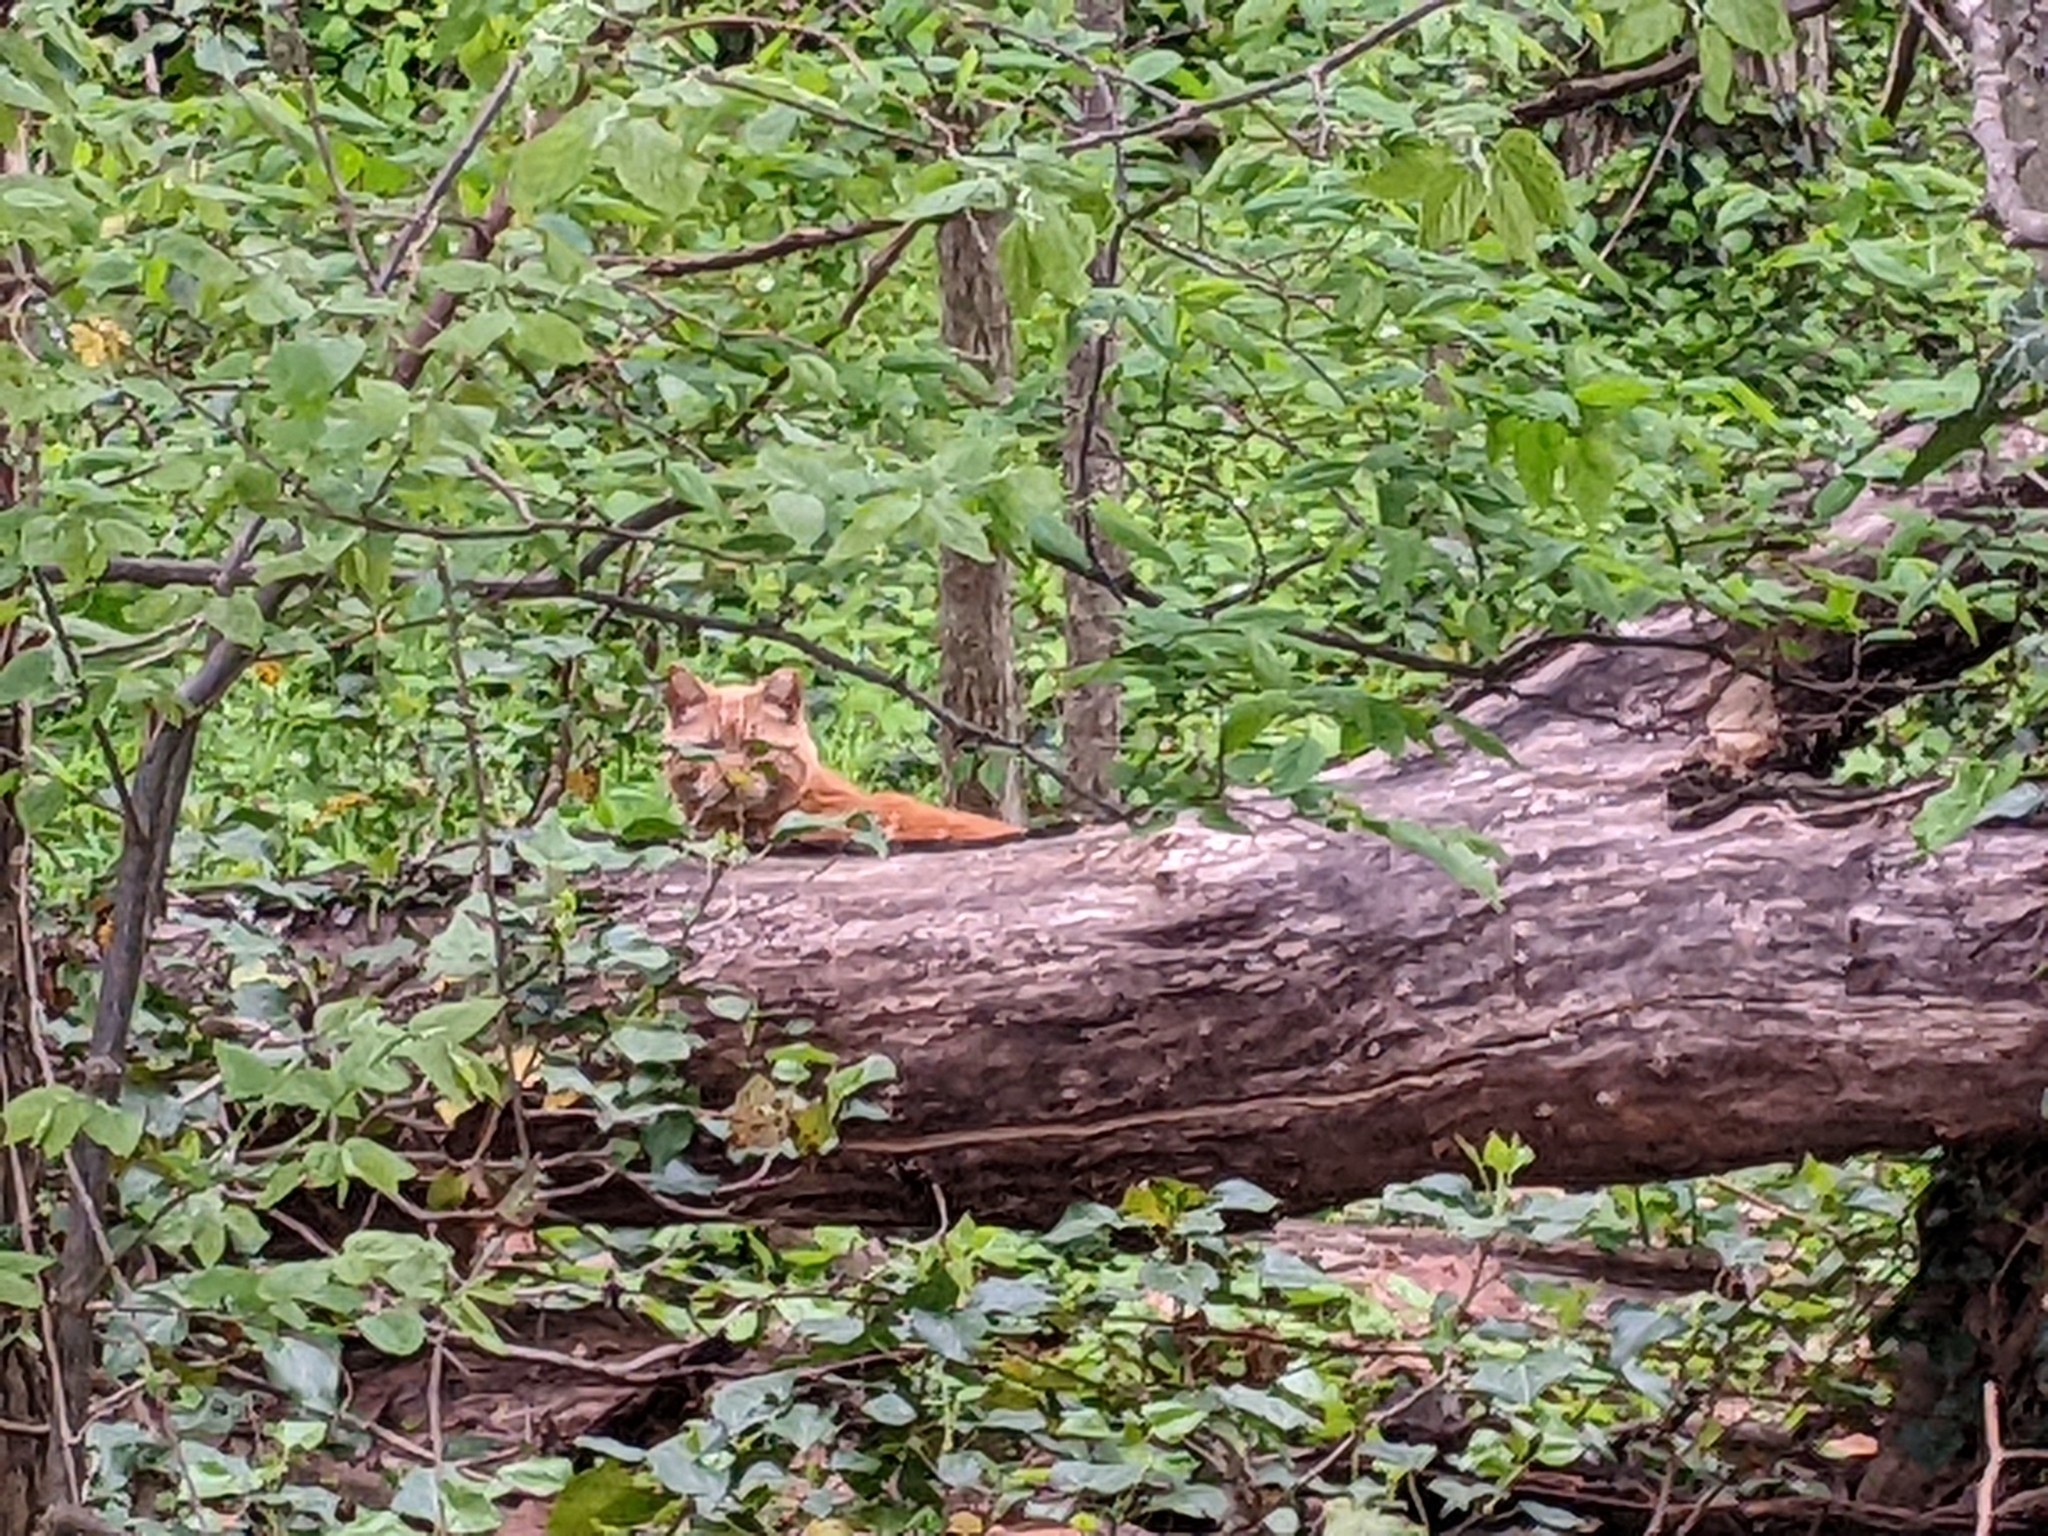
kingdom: Animalia
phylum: Chordata
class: Mammalia
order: Carnivora
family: Felidae
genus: Felis
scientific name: Felis catus
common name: Domestic cat
